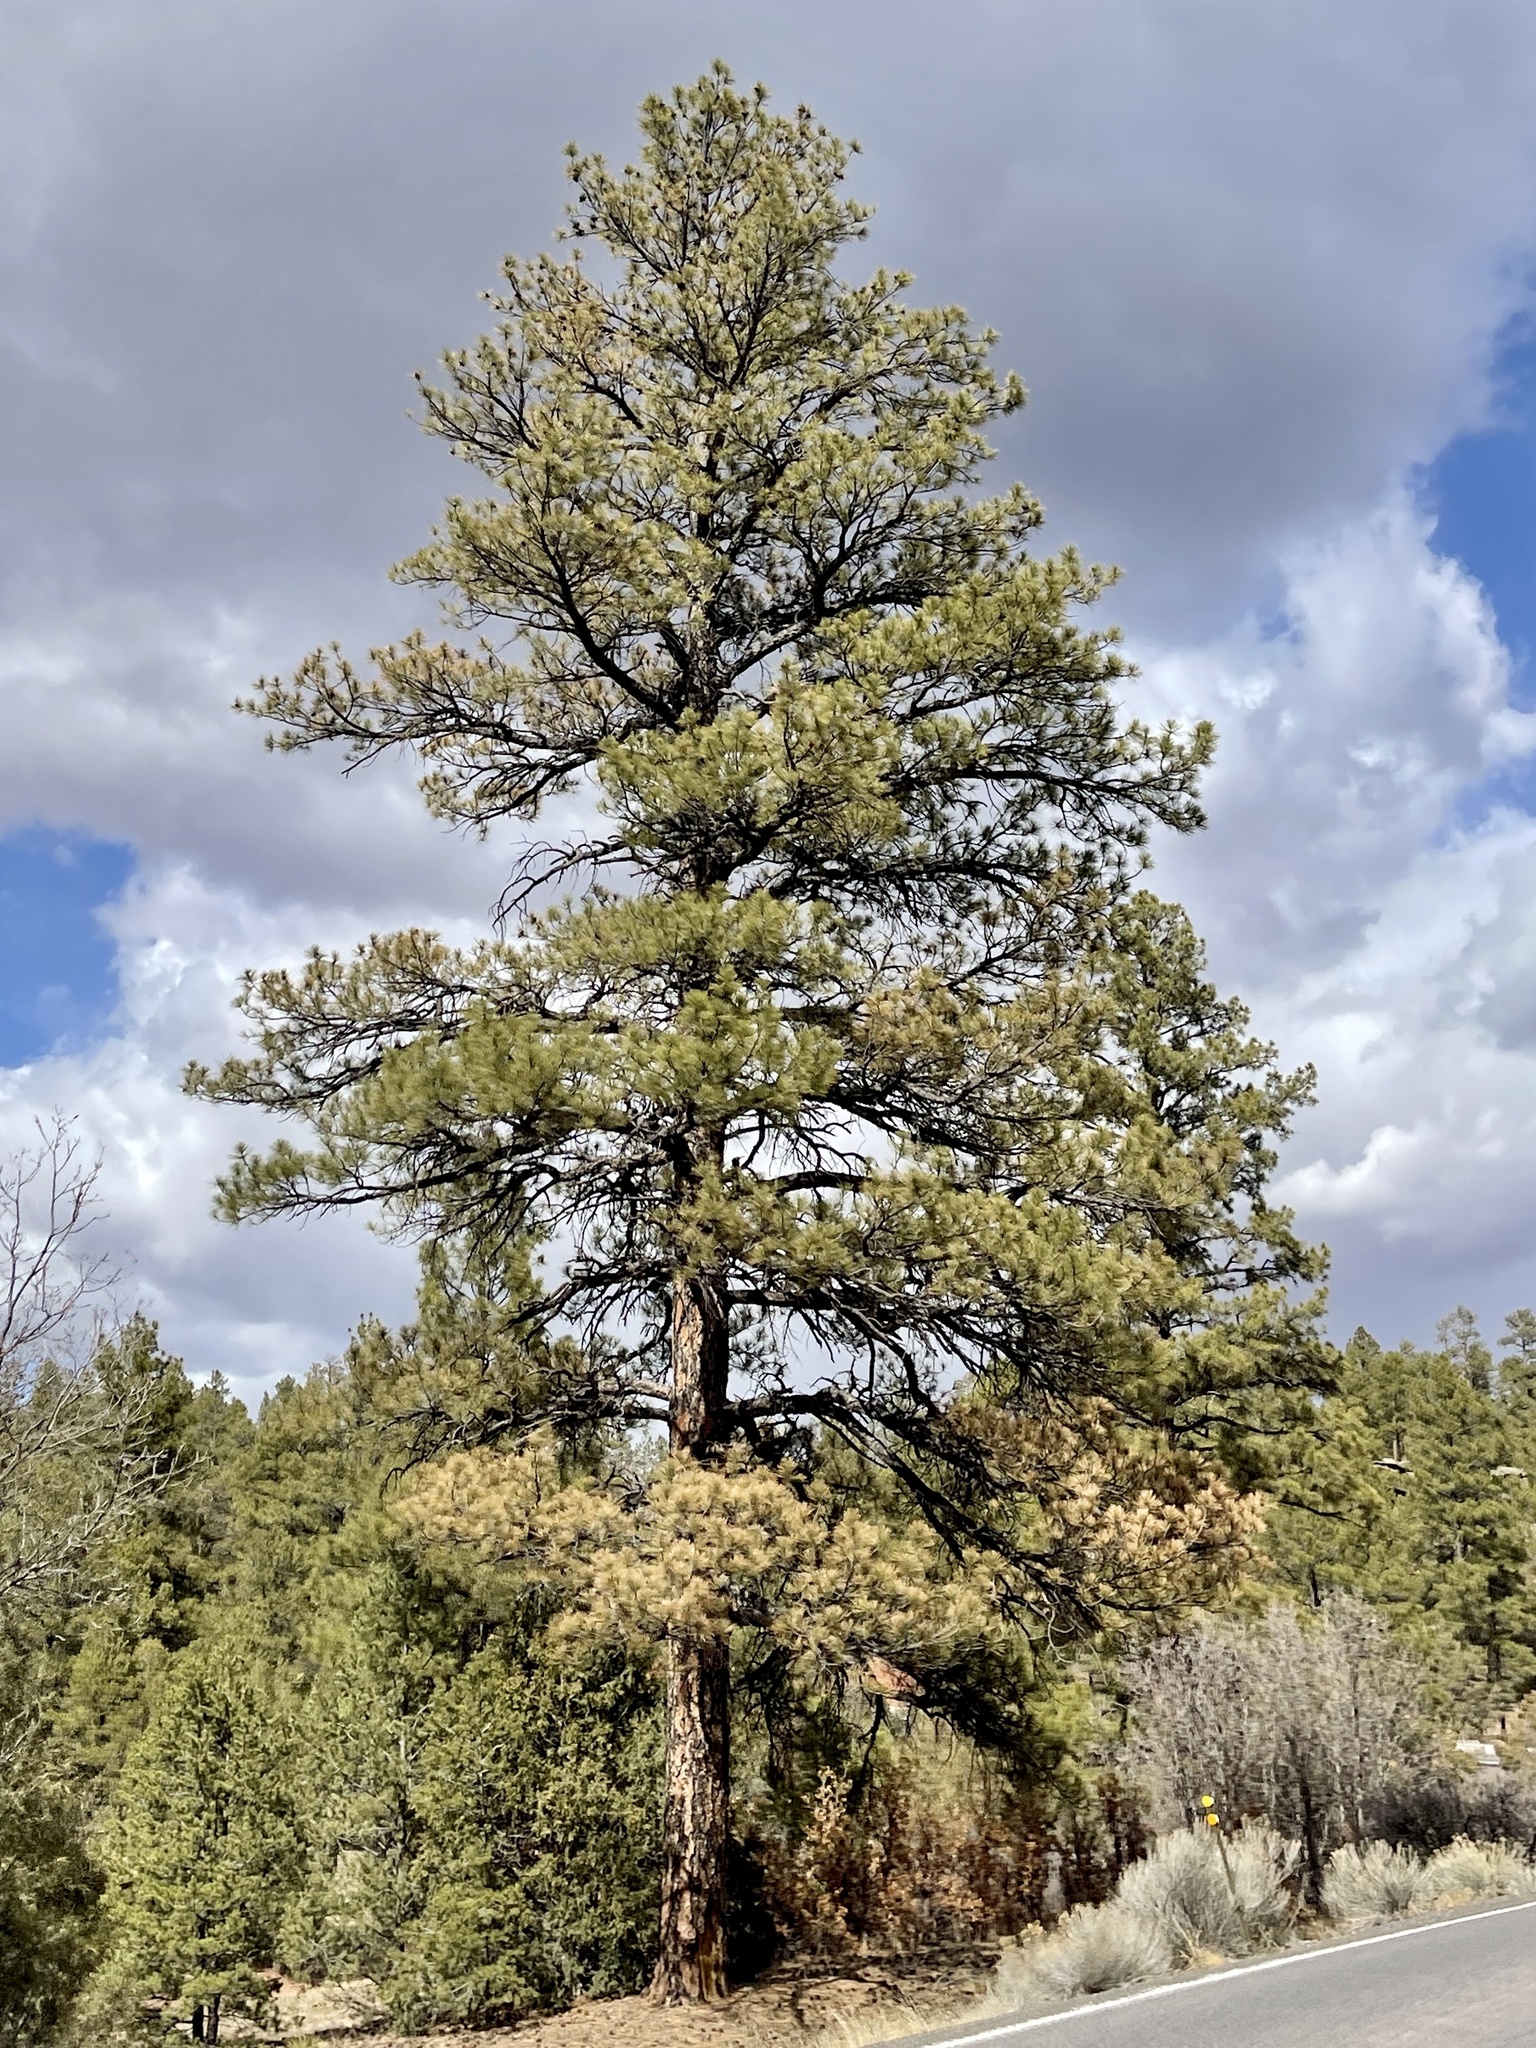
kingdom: Plantae
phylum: Tracheophyta
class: Pinopsida
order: Pinales
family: Pinaceae
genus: Pinus
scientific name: Pinus ponderosa
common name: Western yellow-pine
